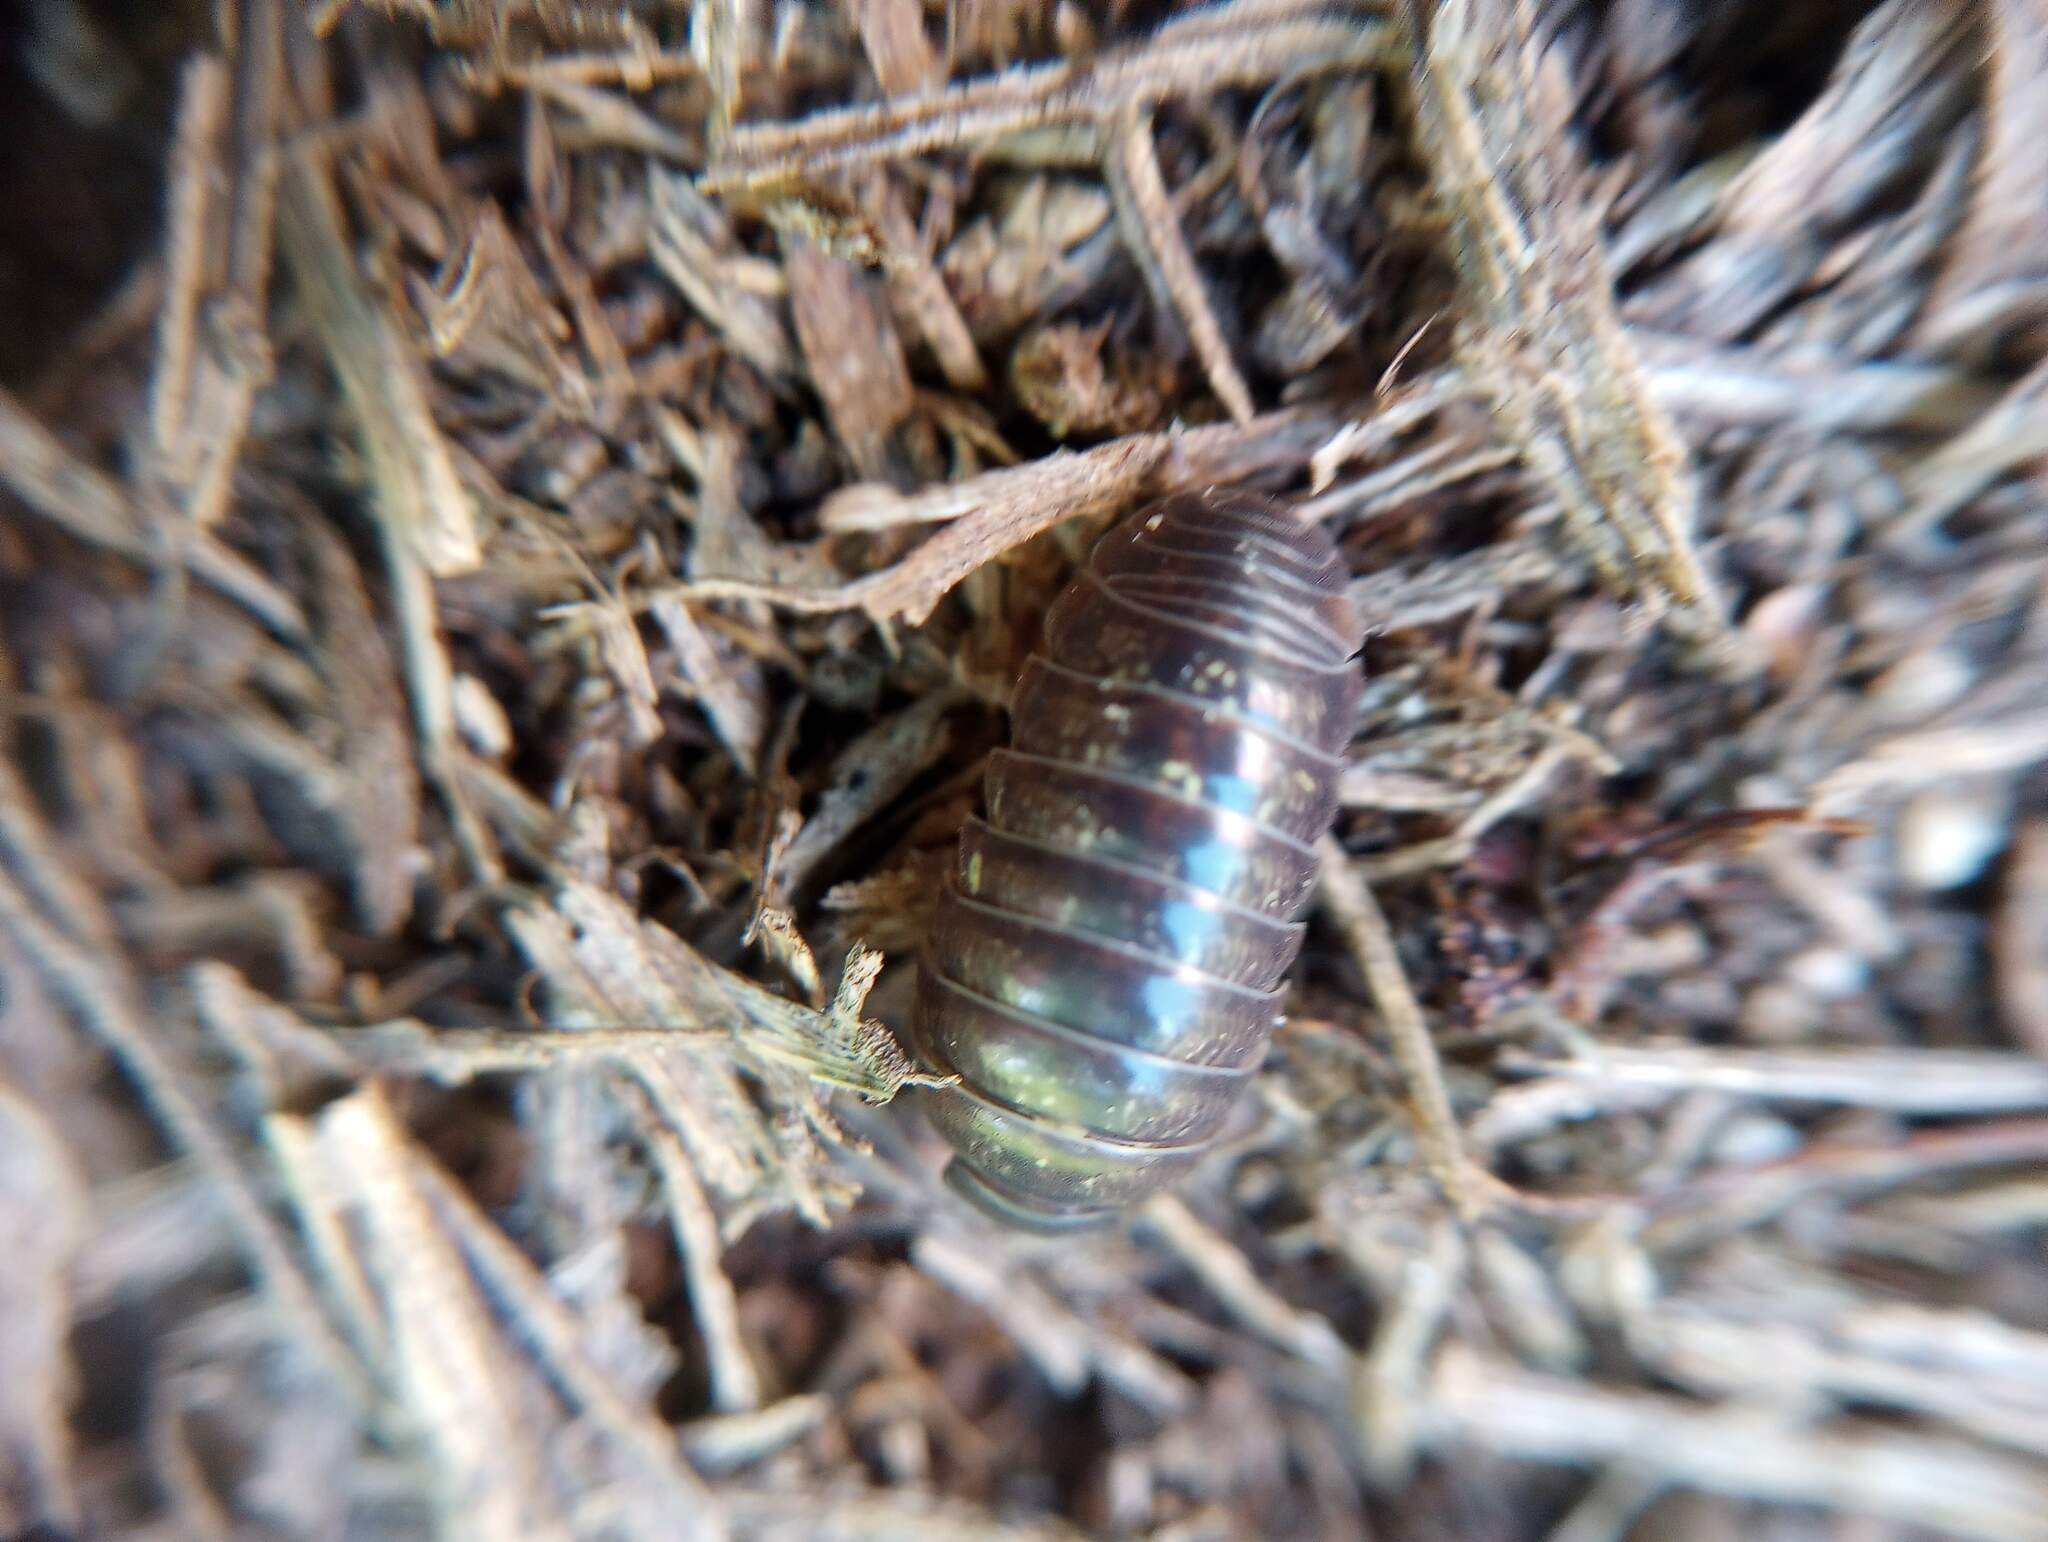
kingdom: Animalia
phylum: Arthropoda
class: Malacostraca
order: Isopoda
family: Armadillidiidae
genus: Armadillidium
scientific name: Armadillidium vulgare
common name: Common pill woodlouse
